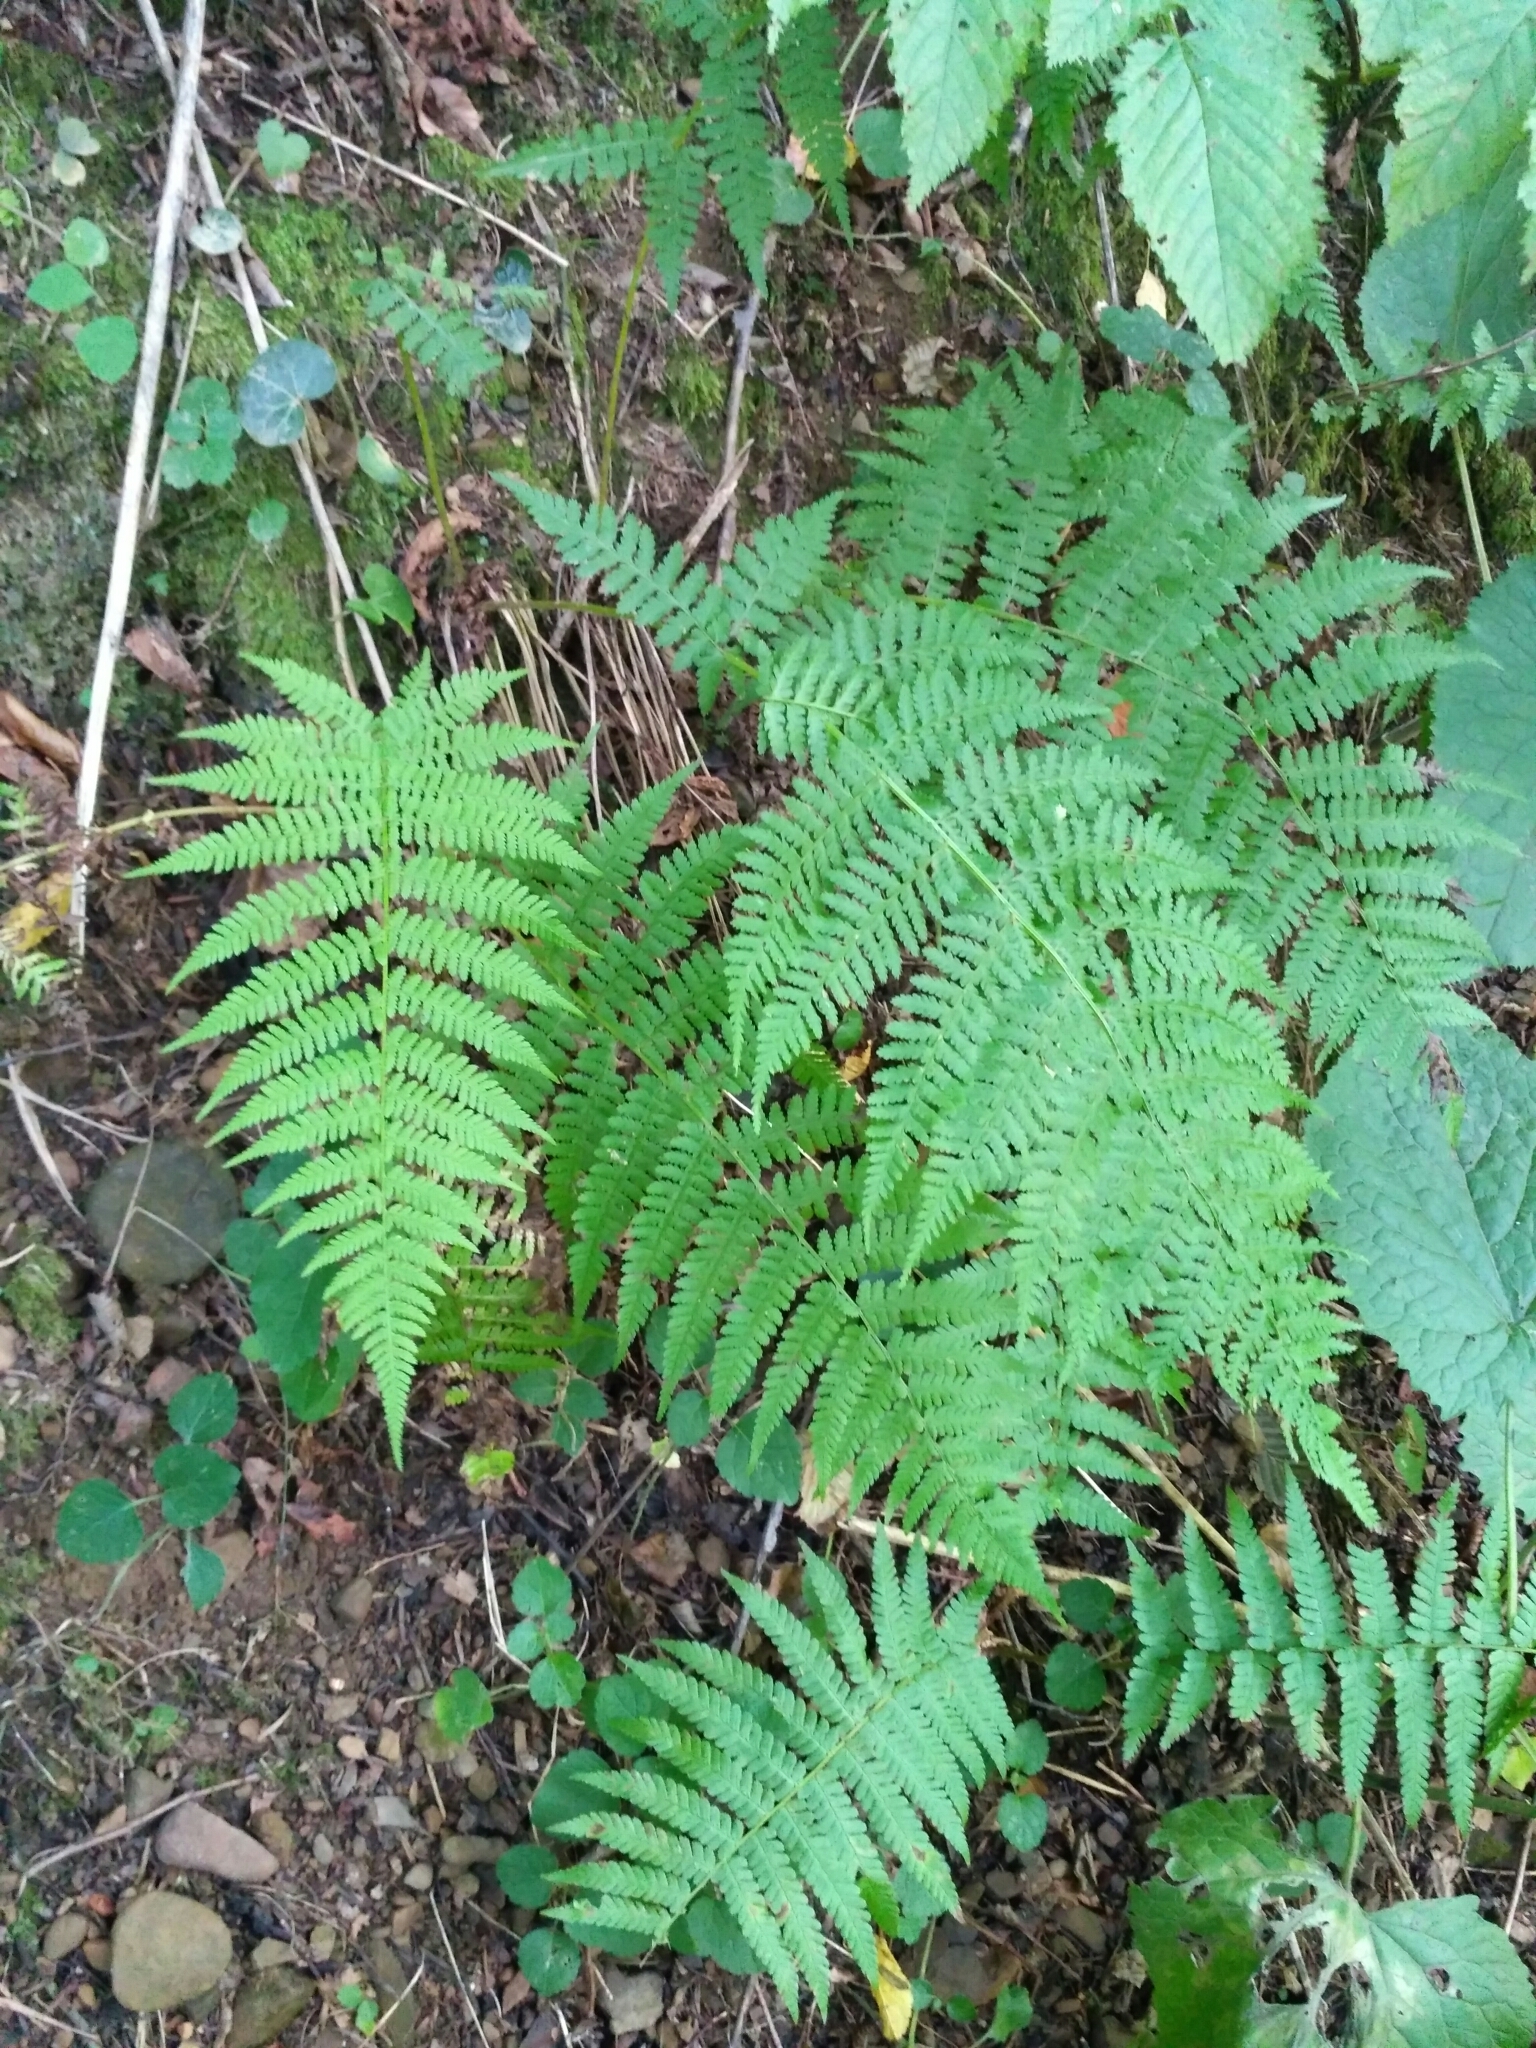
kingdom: Plantae
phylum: Tracheophyta
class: Polypodiopsida
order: Polypodiales
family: Athyriaceae
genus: Athyrium
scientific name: Athyrium filix-femina
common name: Lady fern
